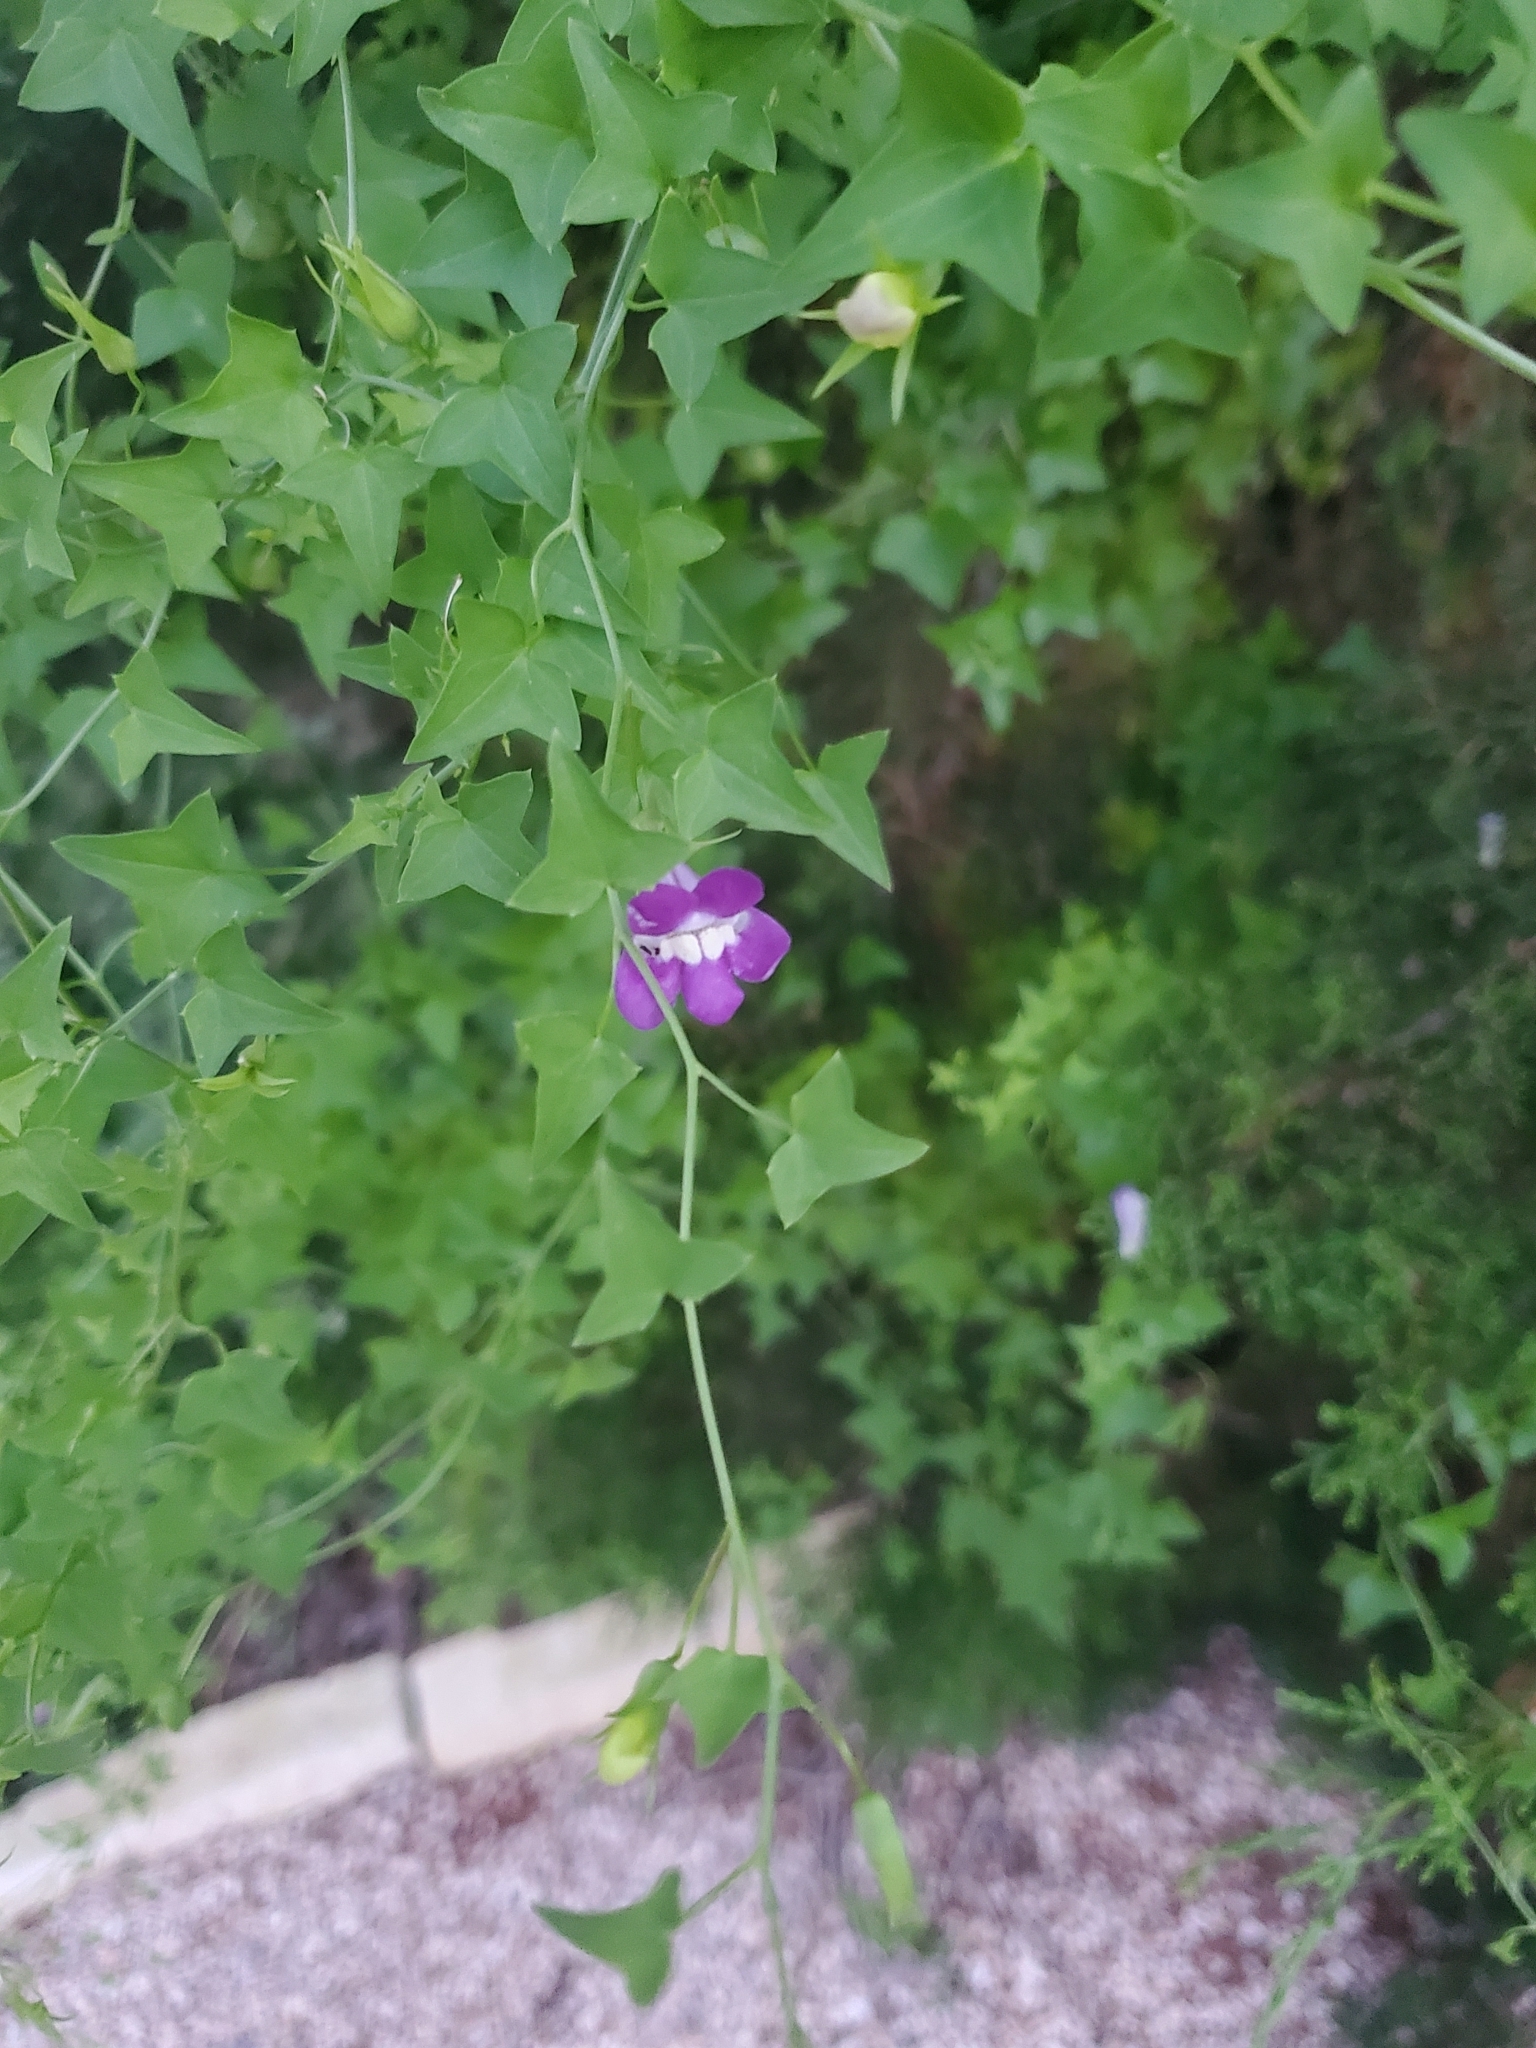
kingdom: Plantae
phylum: Tracheophyta
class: Magnoliopsida
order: Lamiales
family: Plantaginaceae
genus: Maurandella
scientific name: Maurandella antirrhiniflora
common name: Violet twining-snapdragon
